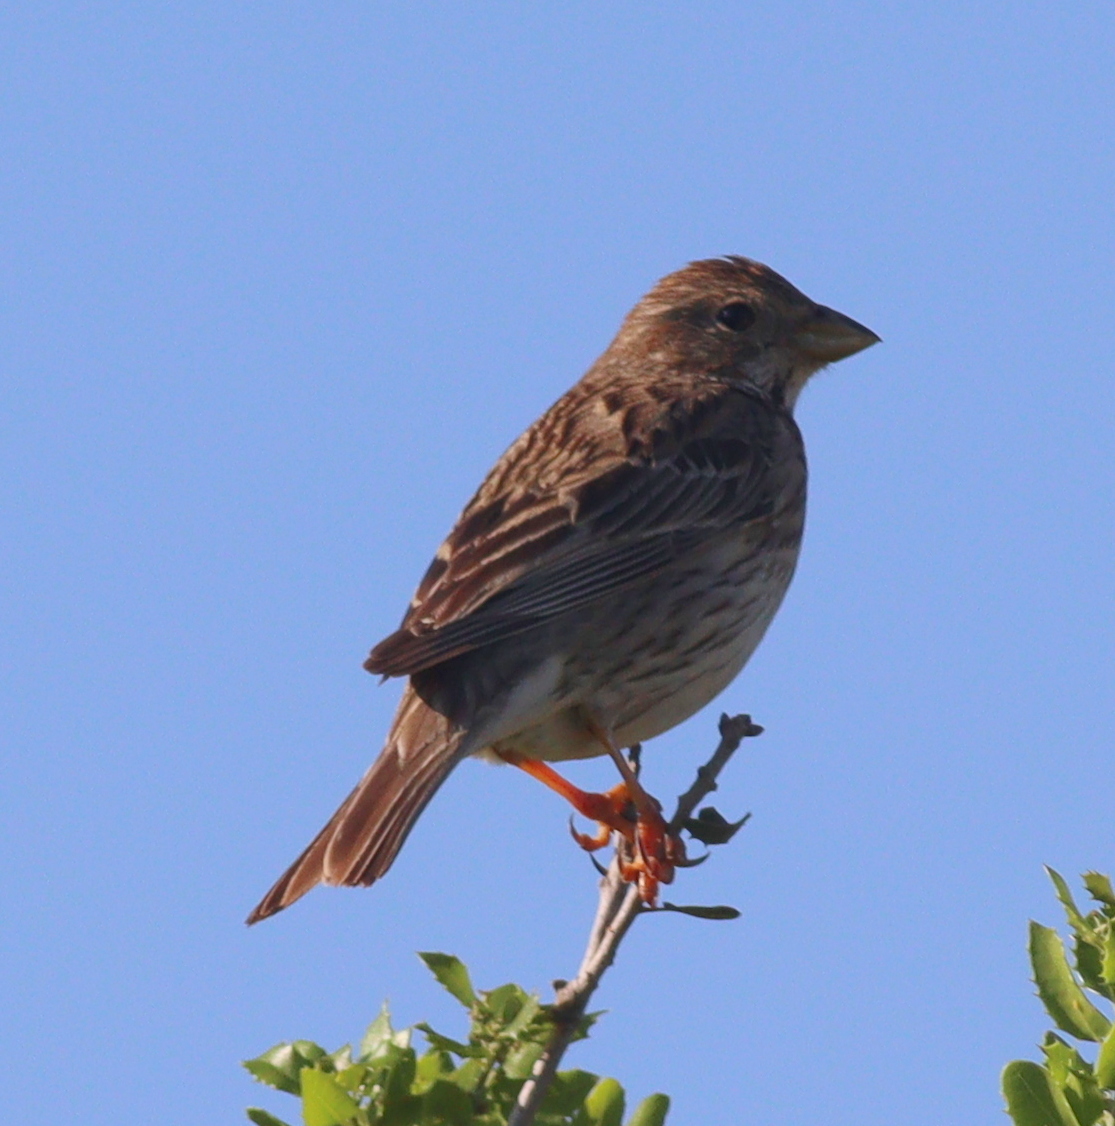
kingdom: Animalia
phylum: Chordata
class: Aves
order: Passeriformes
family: Emberizidae
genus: Emberiza
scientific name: Emberiza calandra
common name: Corn bunting
